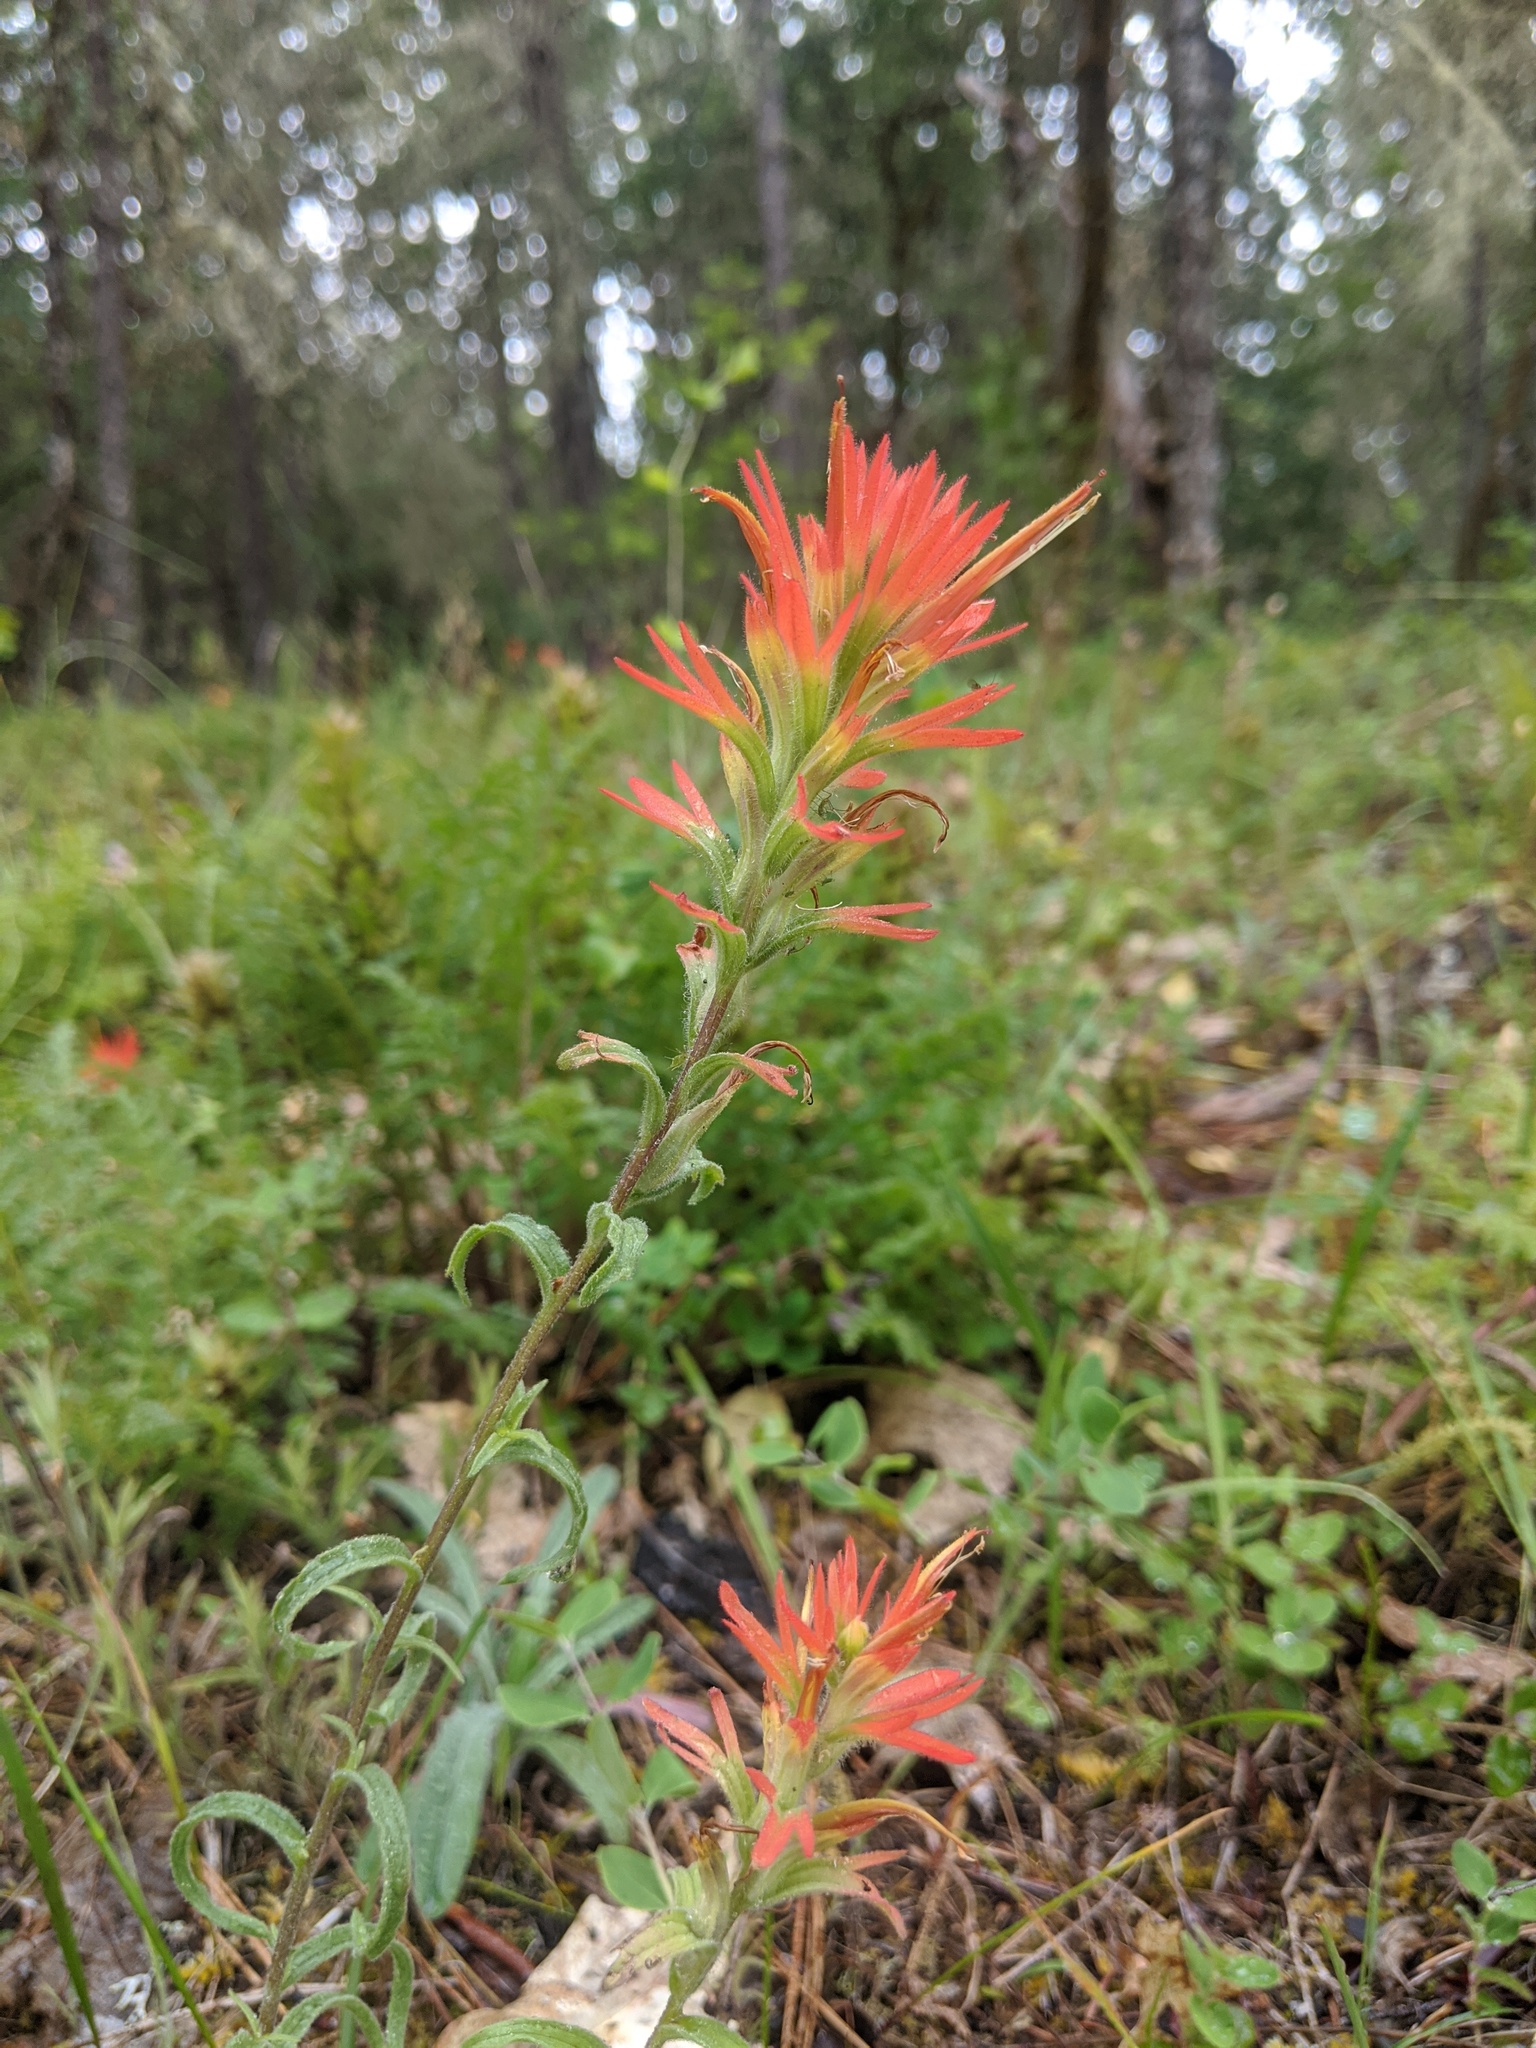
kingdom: Plantae
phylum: Tracheophyta
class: Magnoliopsida
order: Lamiales
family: Orobanchaceae
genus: Castilleja
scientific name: Castilleja pruinosa
